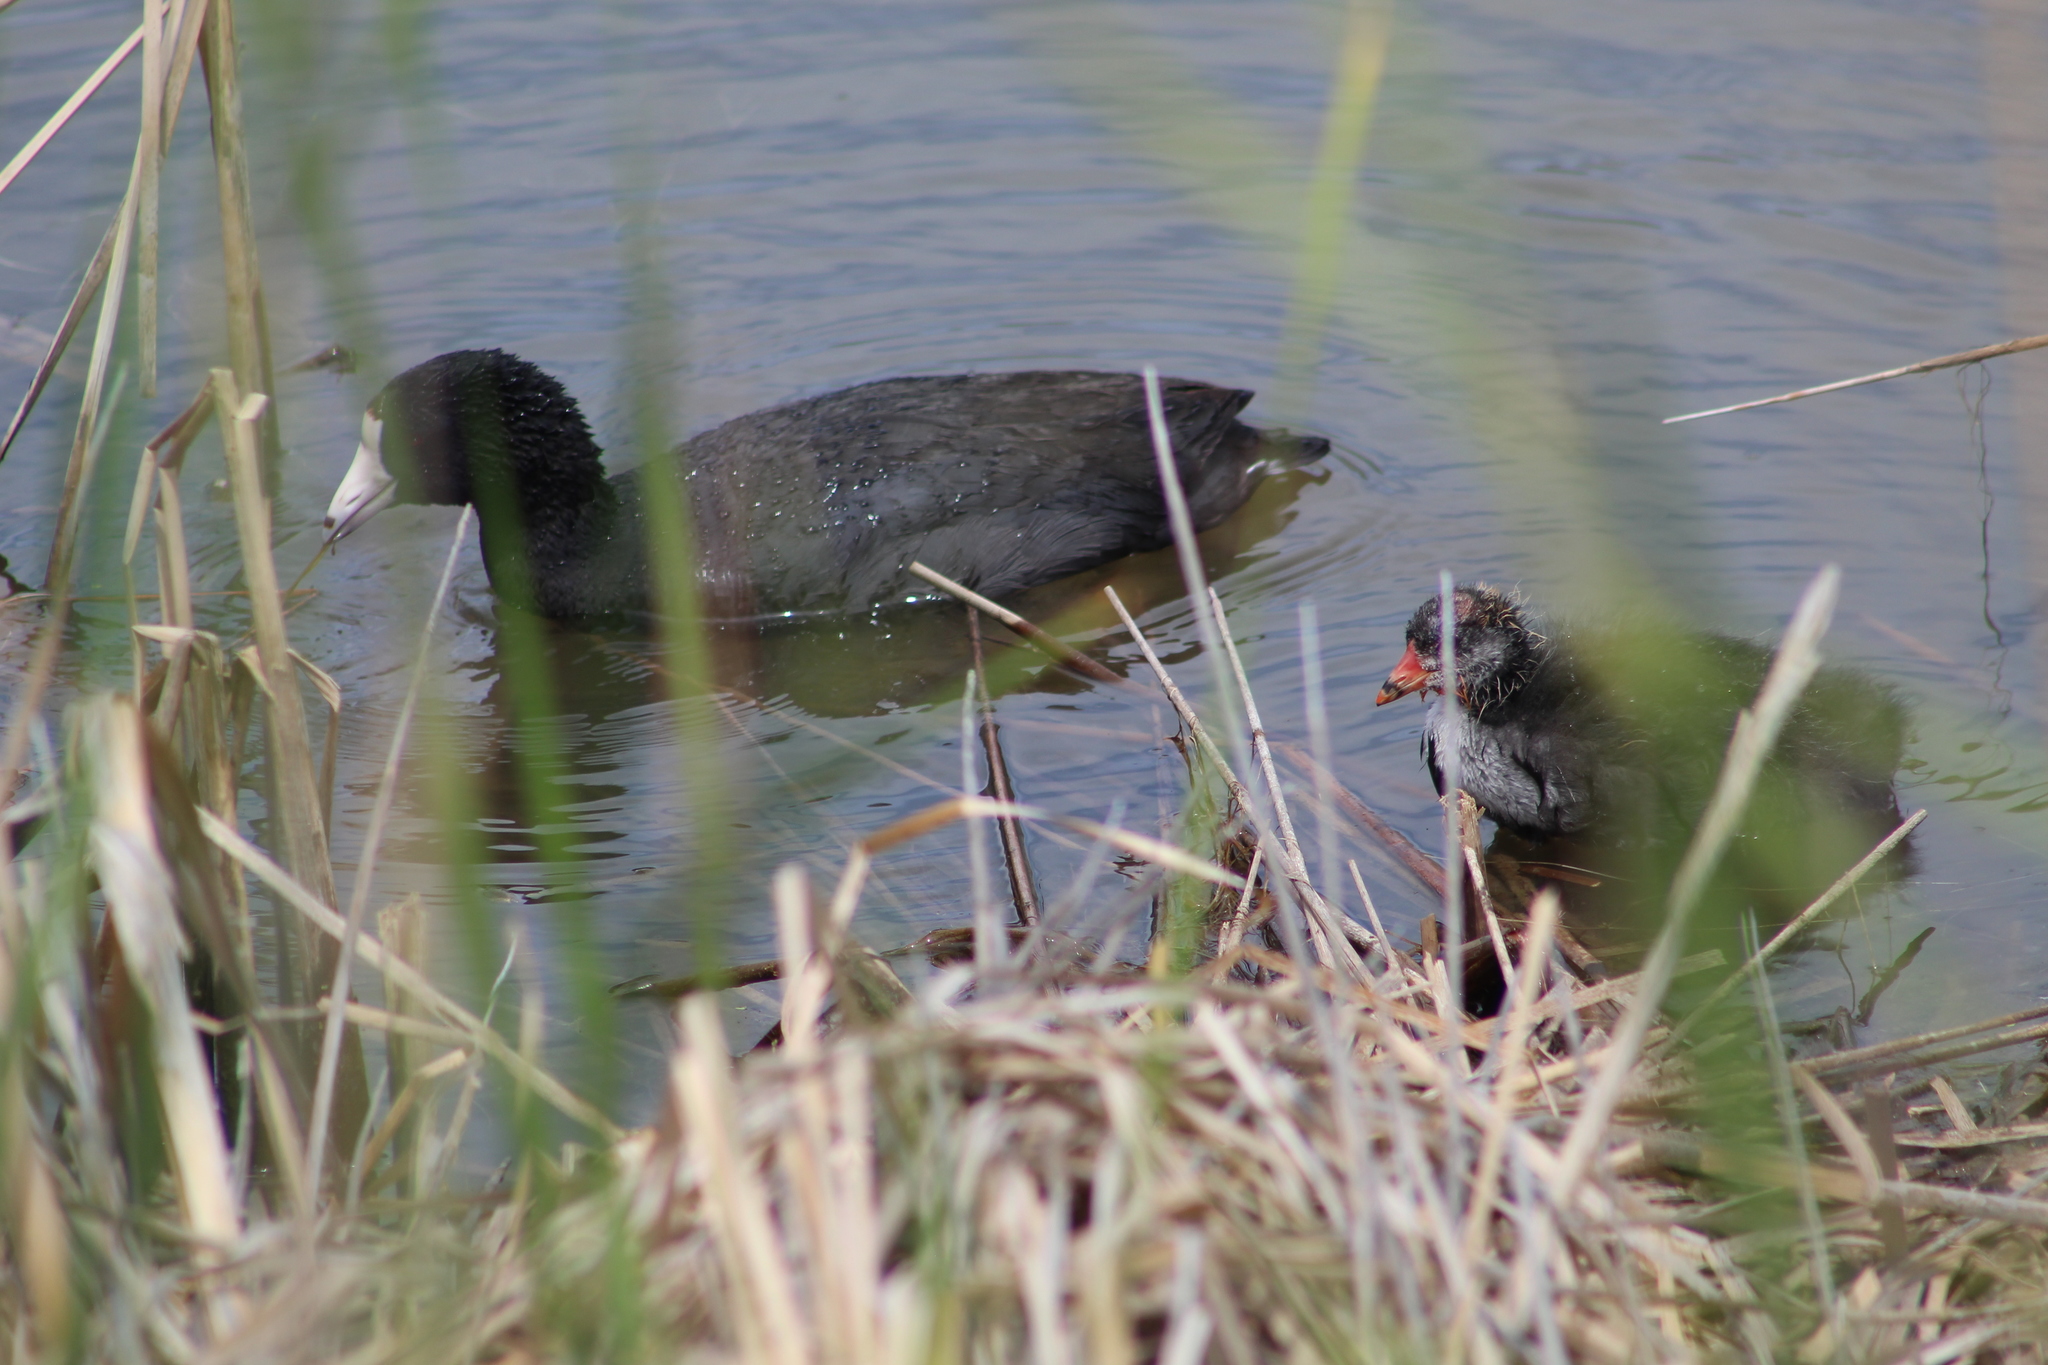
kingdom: Animalia
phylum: Chordata
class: Aves
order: Gruiformes
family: Rallidae
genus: Fulica
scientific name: Fulica americana
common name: American coot
